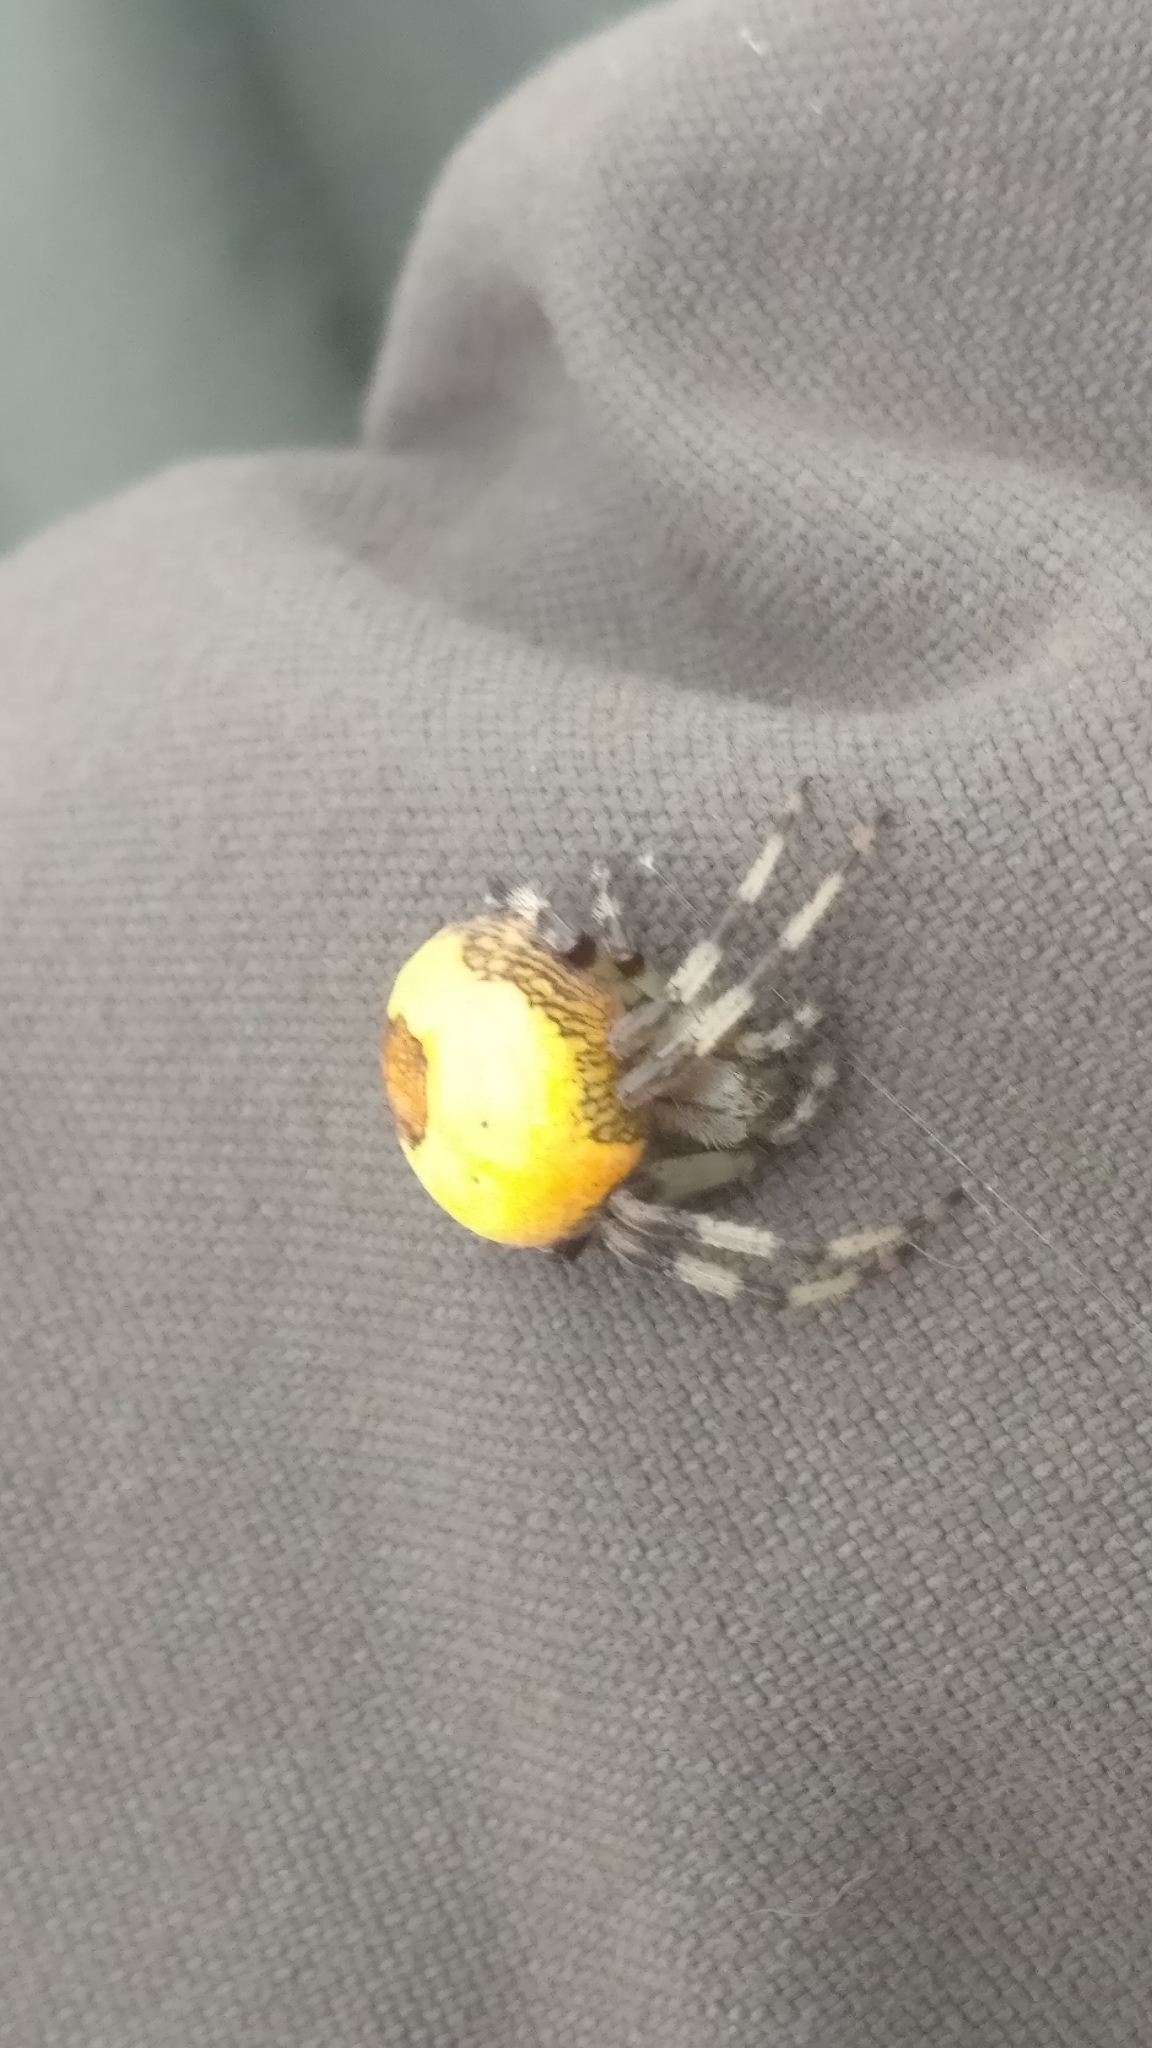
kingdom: Animalia
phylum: Arthropoda
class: Arachnida
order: Araneae
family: Araneidae
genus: Araneus
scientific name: Araneus marmoreus
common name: Marbled orbweaver
